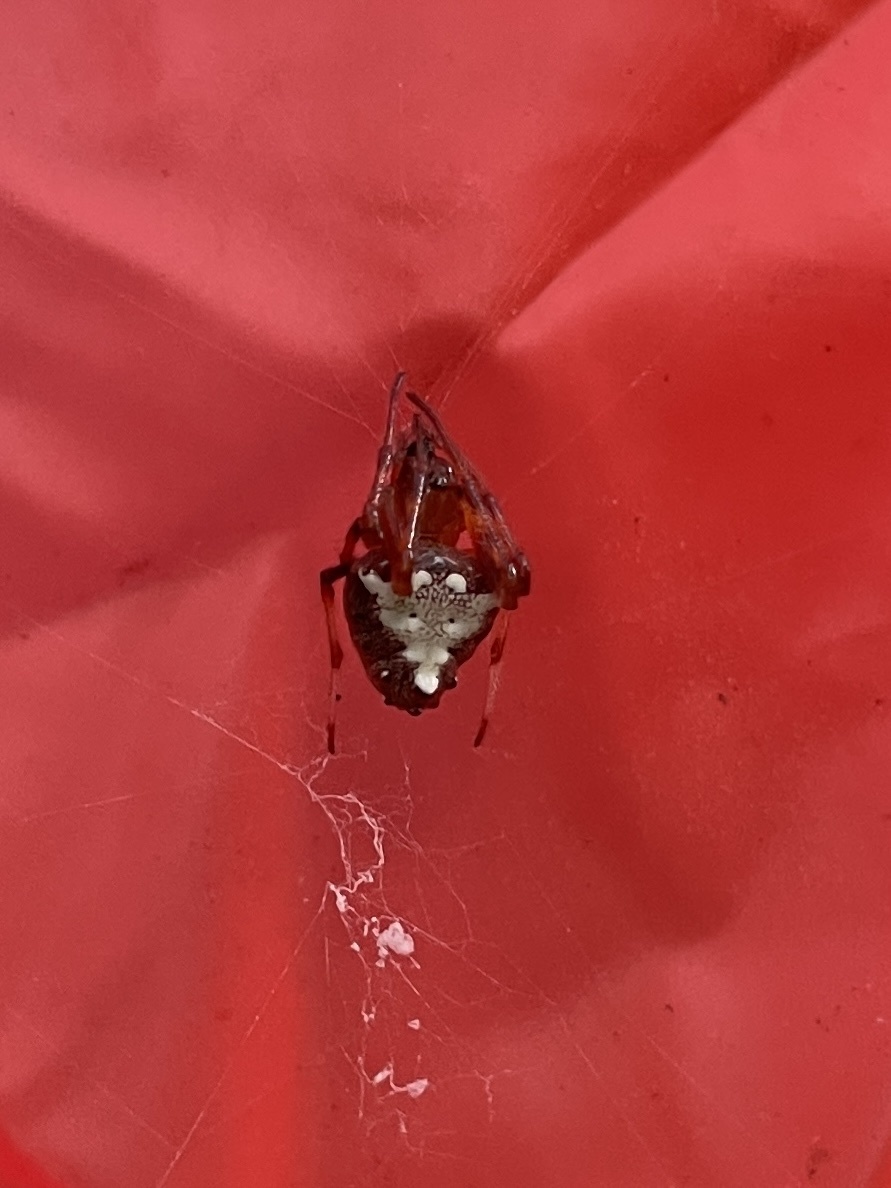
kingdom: Animalia
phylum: Arthropoda
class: Arachnida
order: Araneae
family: Araneidae
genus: Verrucosa
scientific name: Verrucosa arenata
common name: Orb weavers
